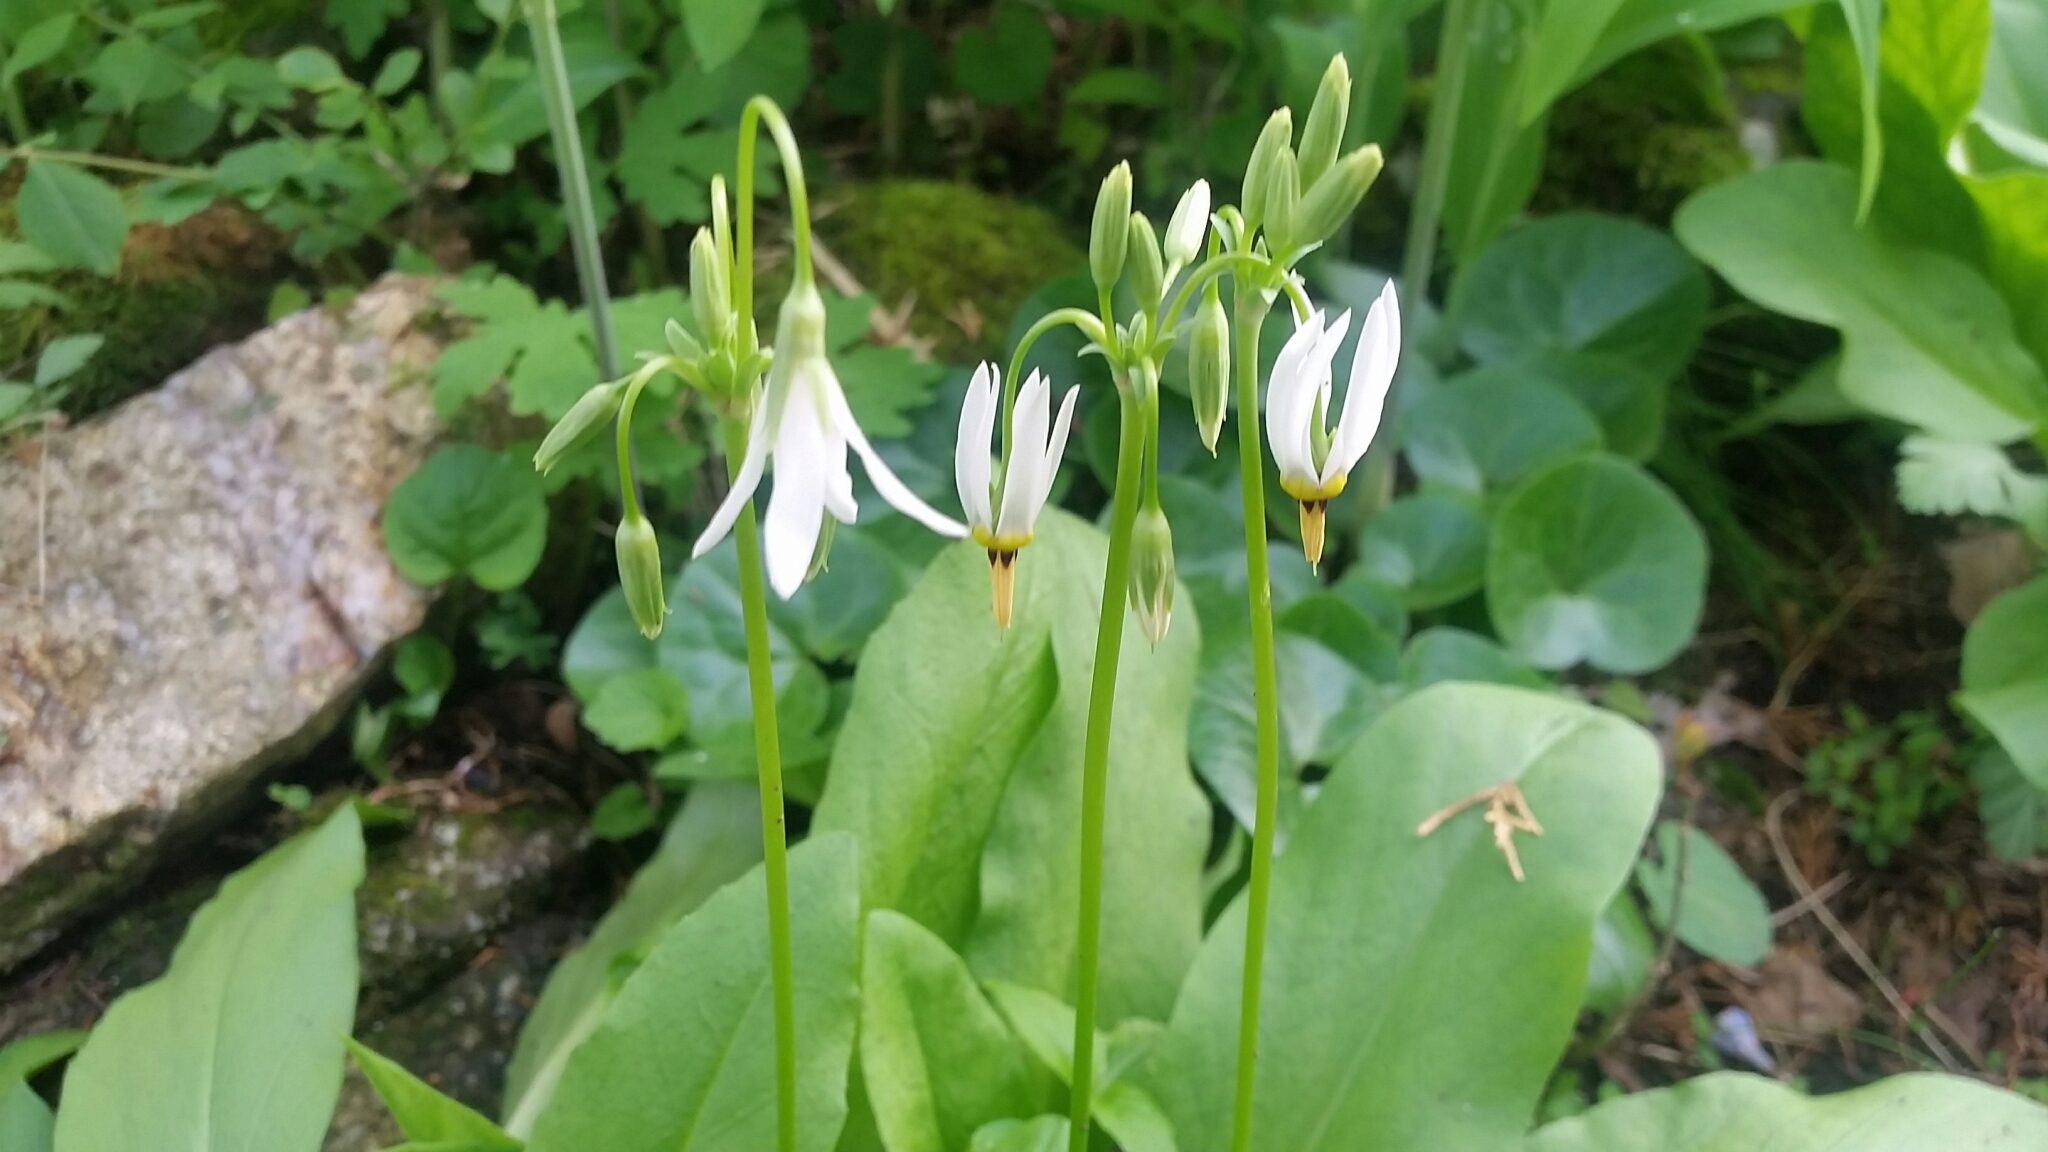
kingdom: Plantae
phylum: Tracheophyta
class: Magnoliopsida
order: Ericales
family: Primulaceae
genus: Dodecatheon
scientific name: Dodecatheon meadia
